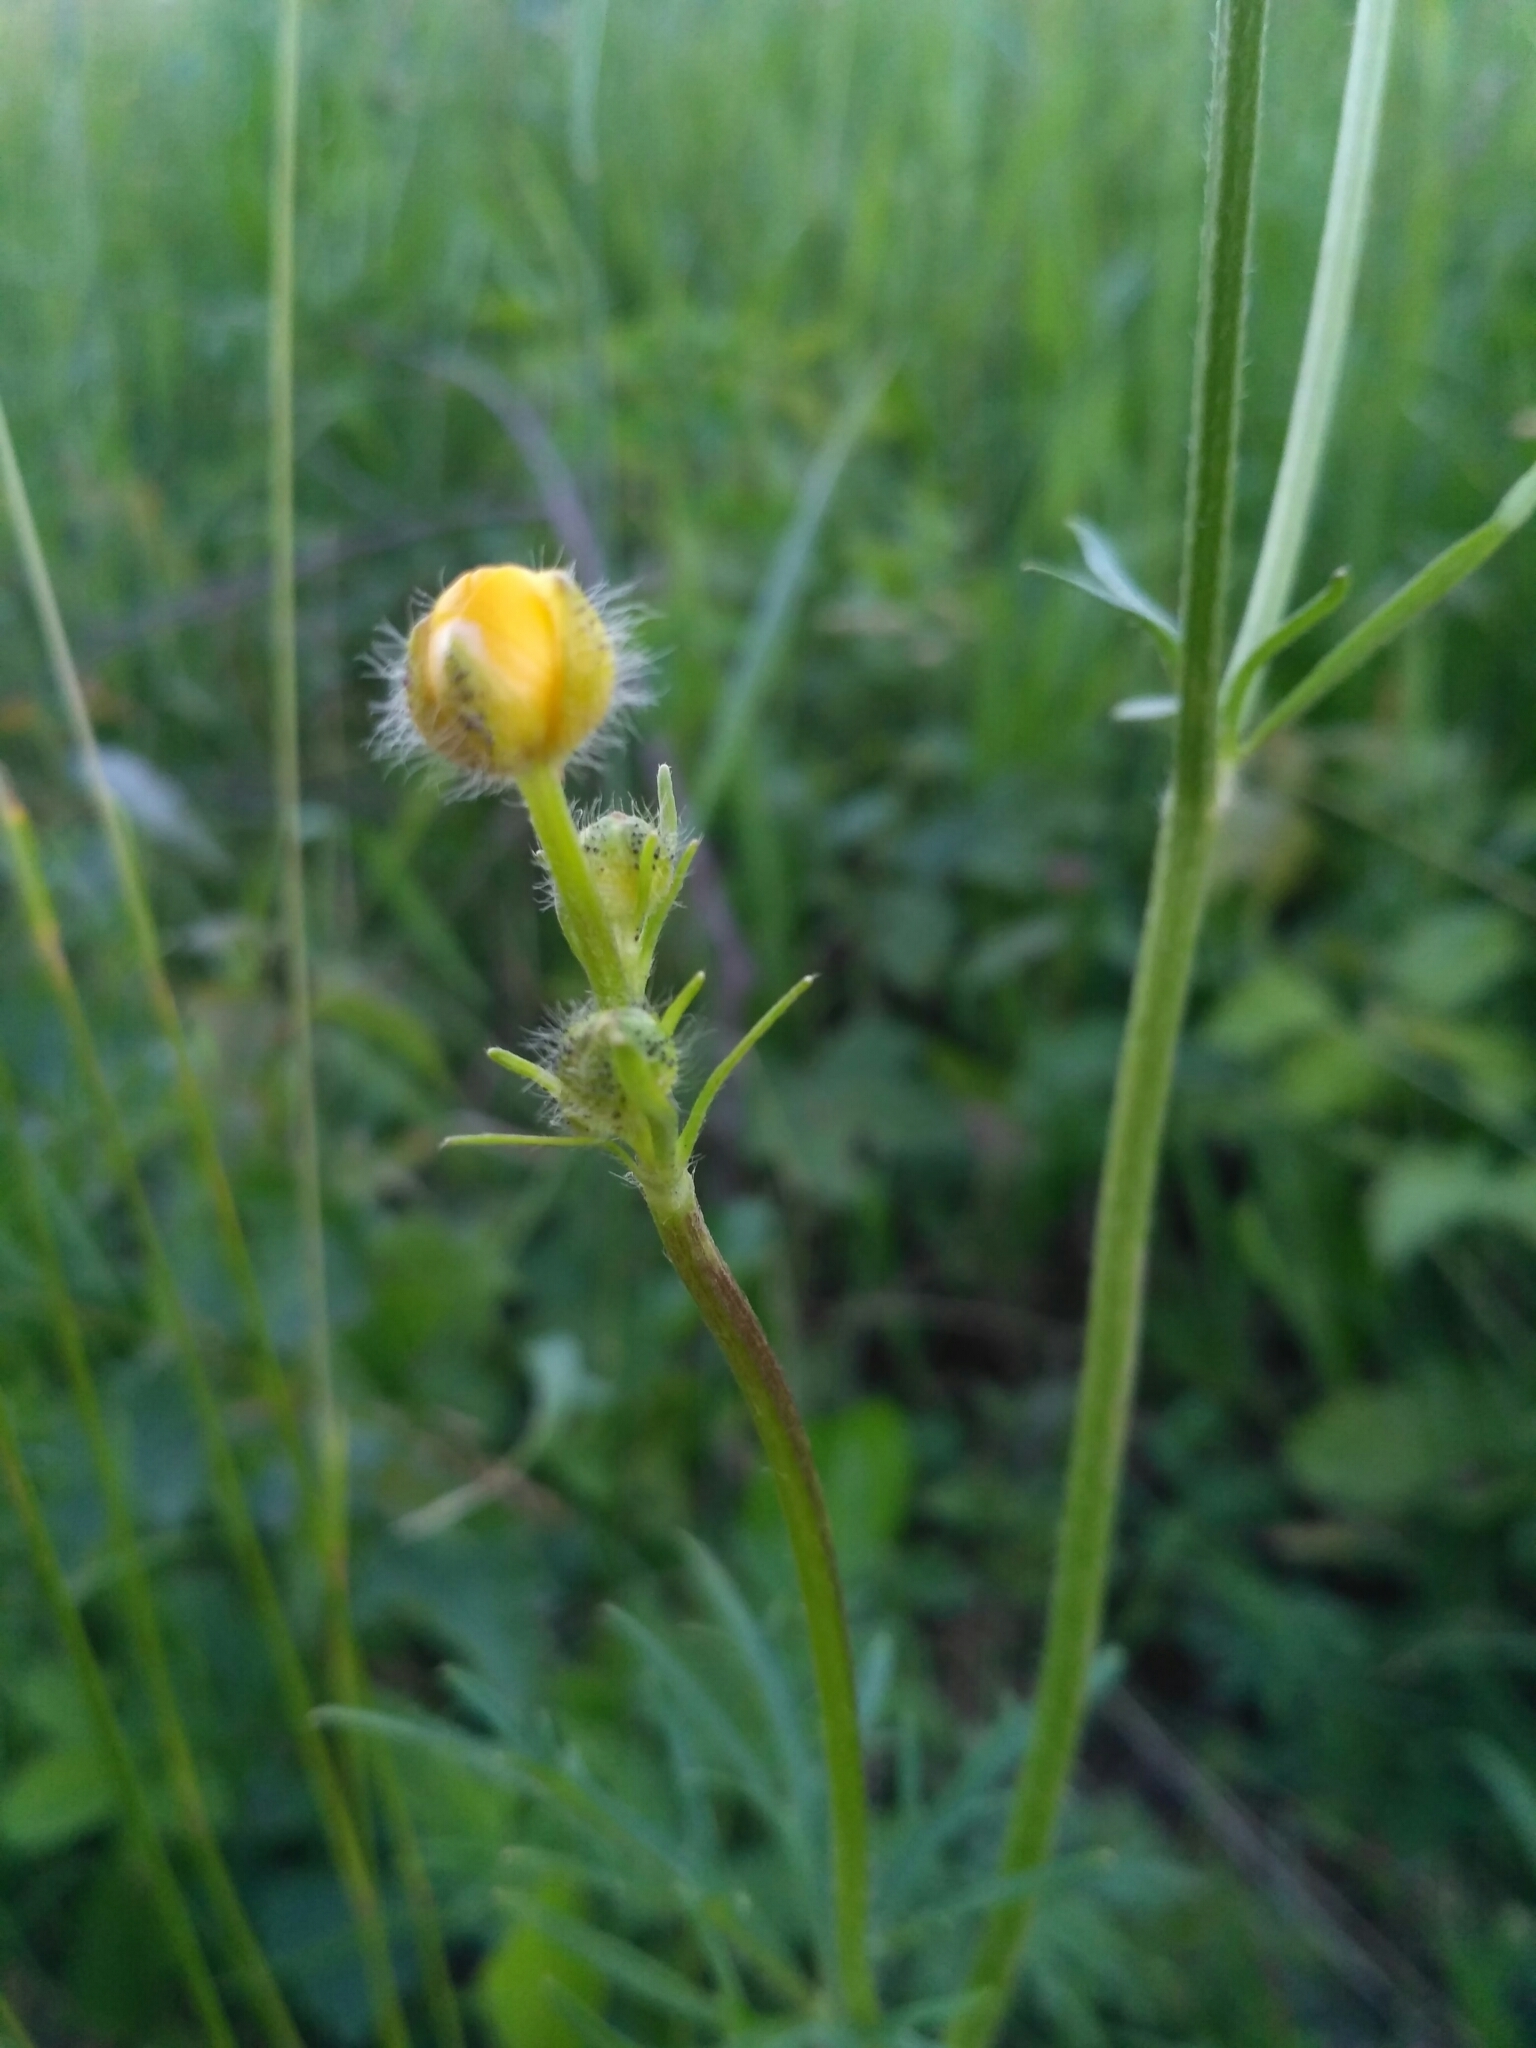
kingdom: Plantae
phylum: Tracheophyta
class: Magnoliopsida
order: Ranunculales
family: Ranunculaceae
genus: Ranunculus
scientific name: Ranunculus polyanthemos
